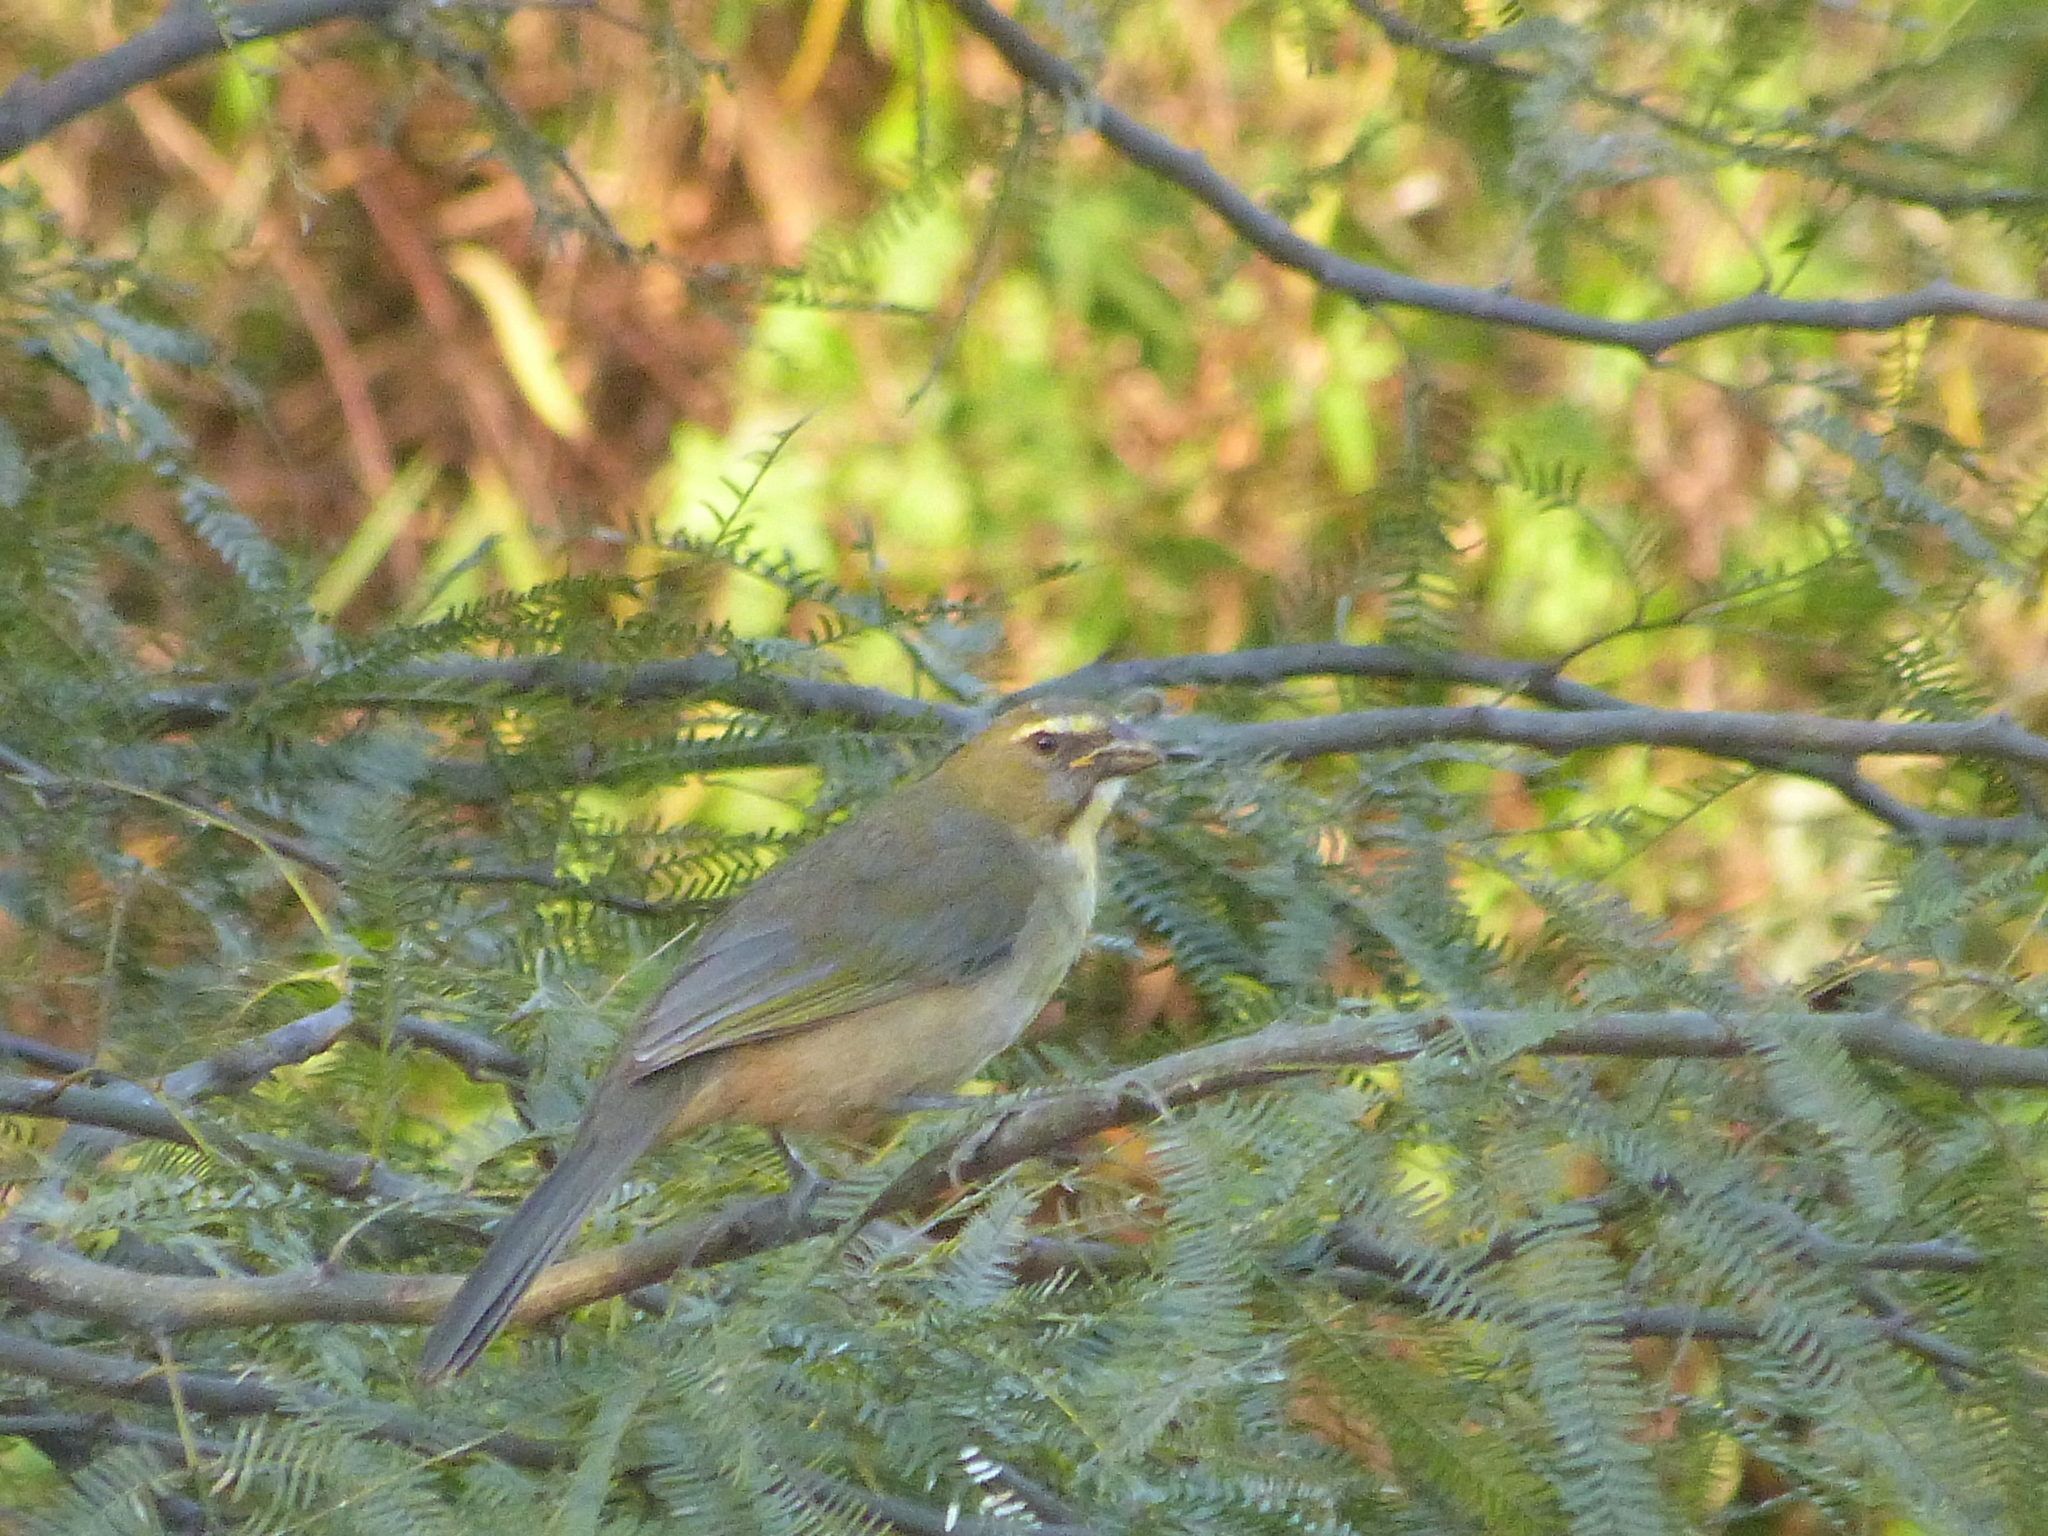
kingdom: Animalia
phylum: Chordata
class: Aves
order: Passeriformes
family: Thraupidae
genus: Saltator
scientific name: Saltator coerulescens
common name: Grayish saltator
